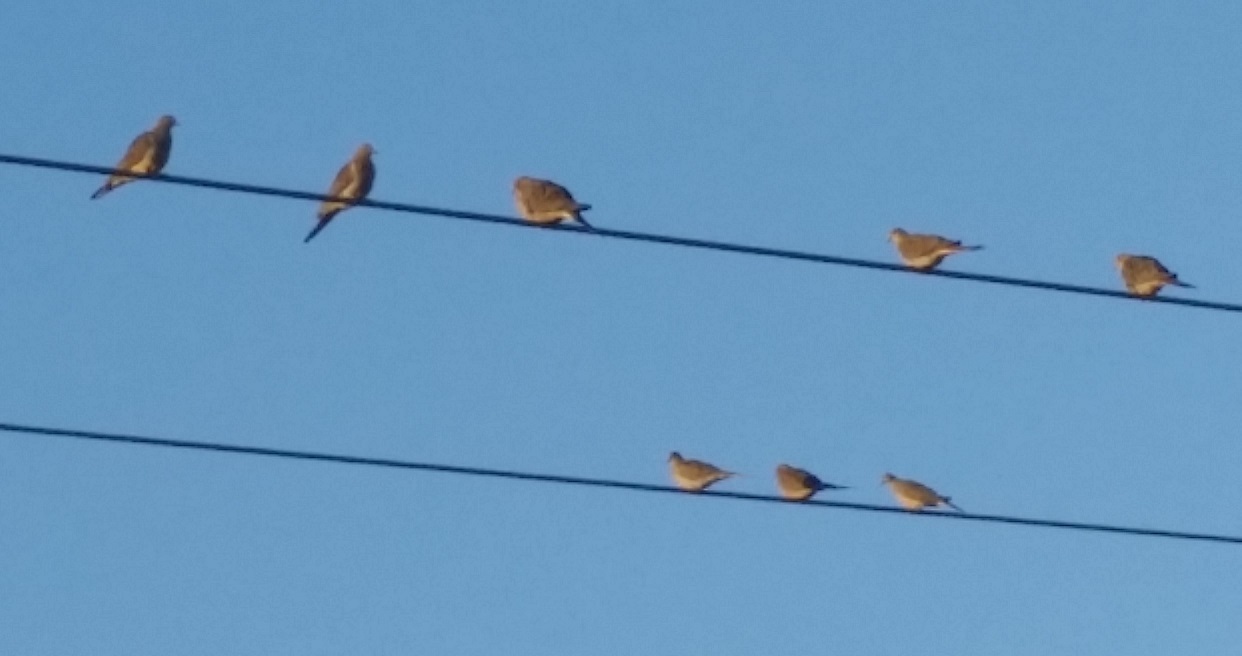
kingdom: Animalia
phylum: Chordata
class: Aves
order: Columbiformes
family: Columbidae
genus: Zenaida
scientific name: Zenaida macroura
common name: Mourning dove
